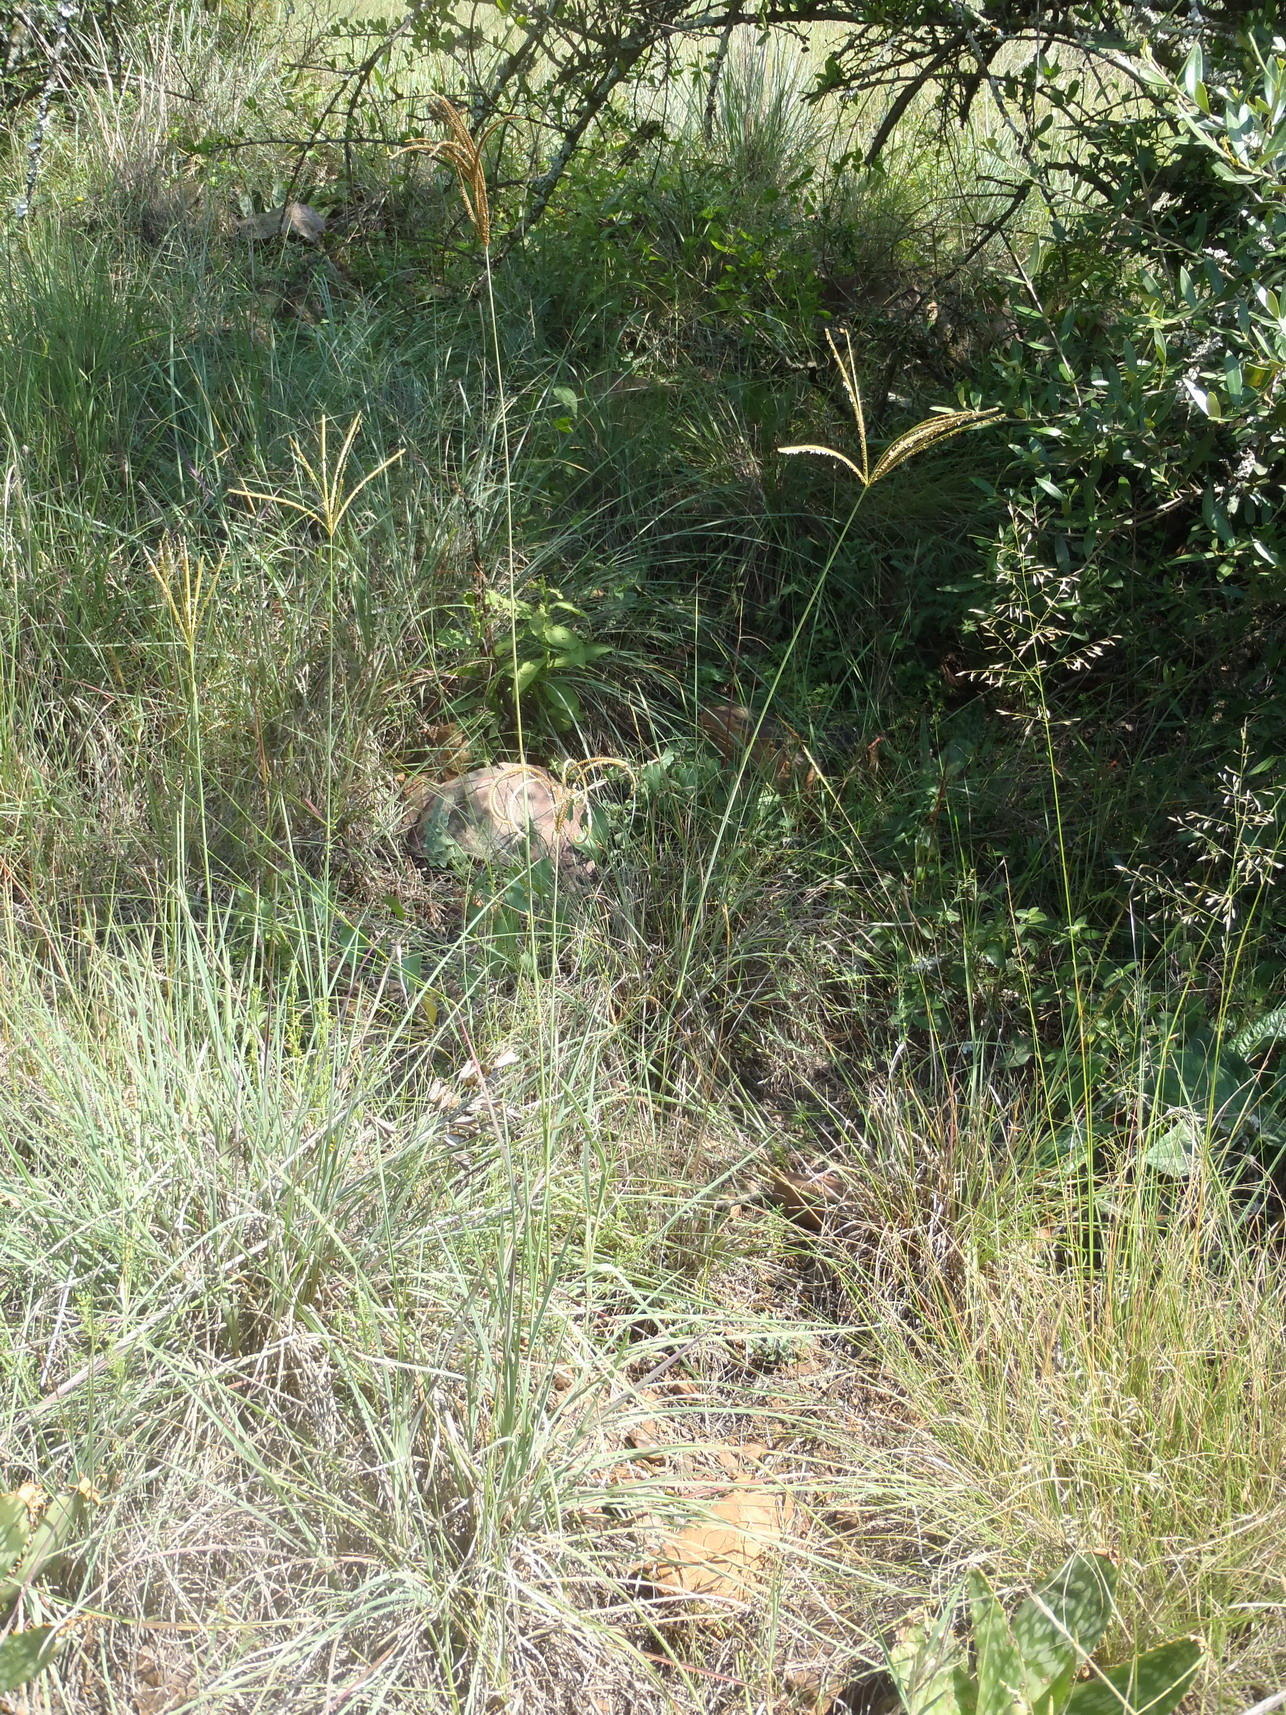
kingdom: Plantae
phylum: Tracheophyta
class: Liliopsida
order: Poales
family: Poaceae
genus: Eustachys
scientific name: Eustachys paspaloides
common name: Caribbean fingergrass
